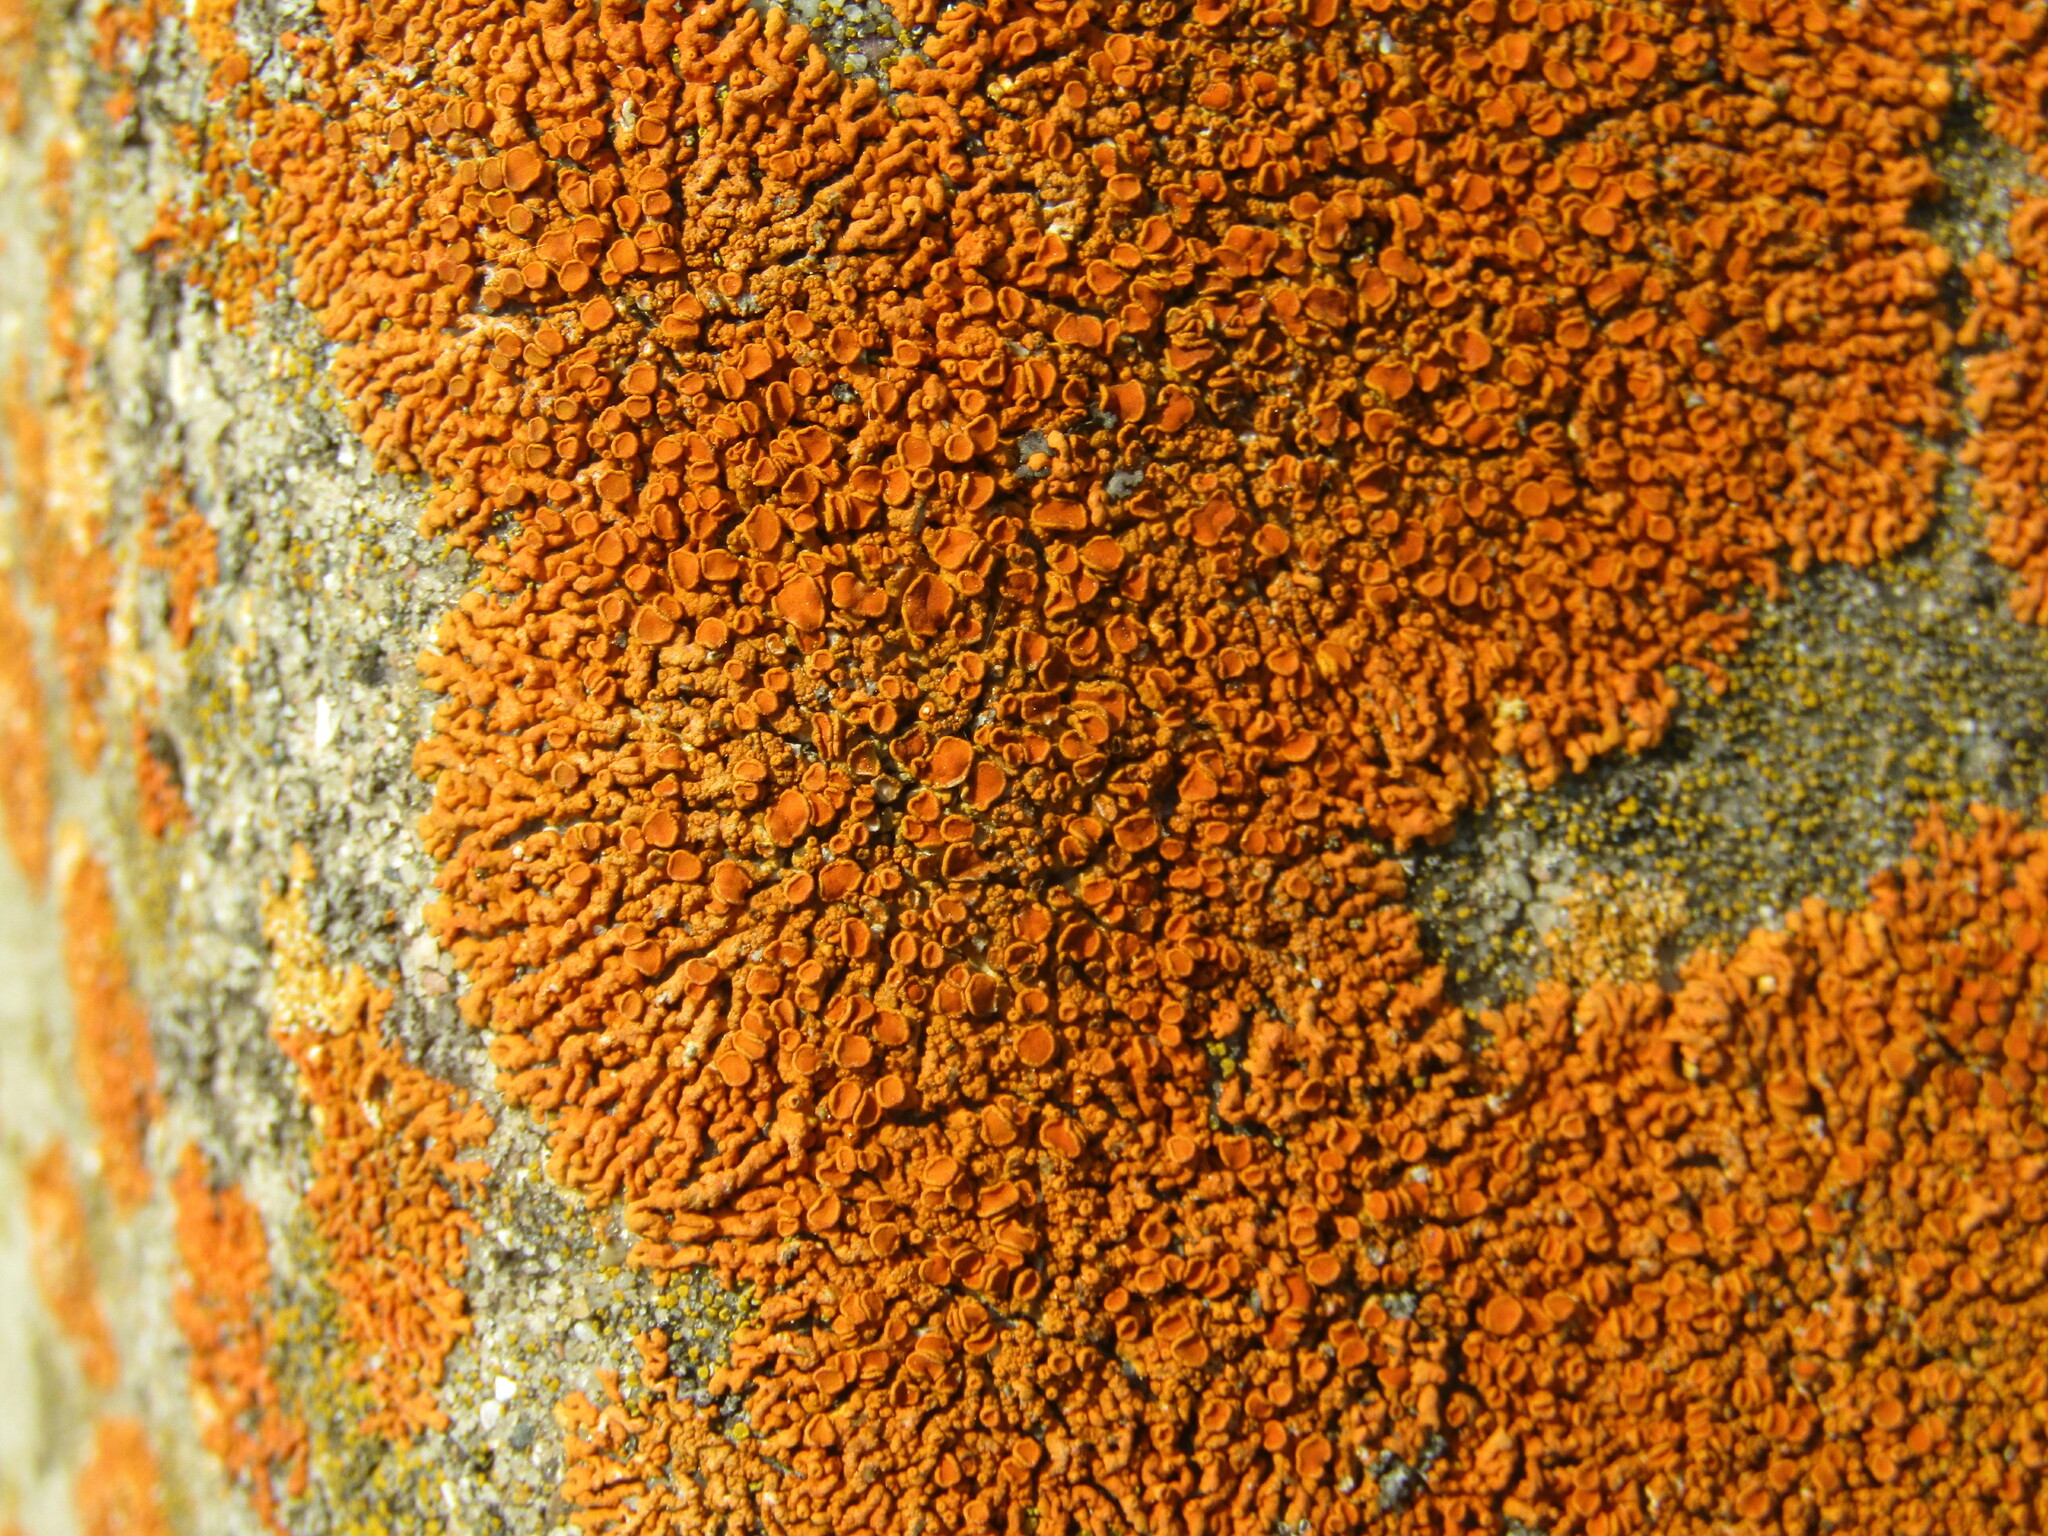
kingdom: Fungi
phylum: Ascomycota
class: Lecanoromycetes
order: Teloschistales
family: Teloschistaceae
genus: Xanthoria
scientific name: Xanthoria elegans
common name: Elegant sunburst lichen
